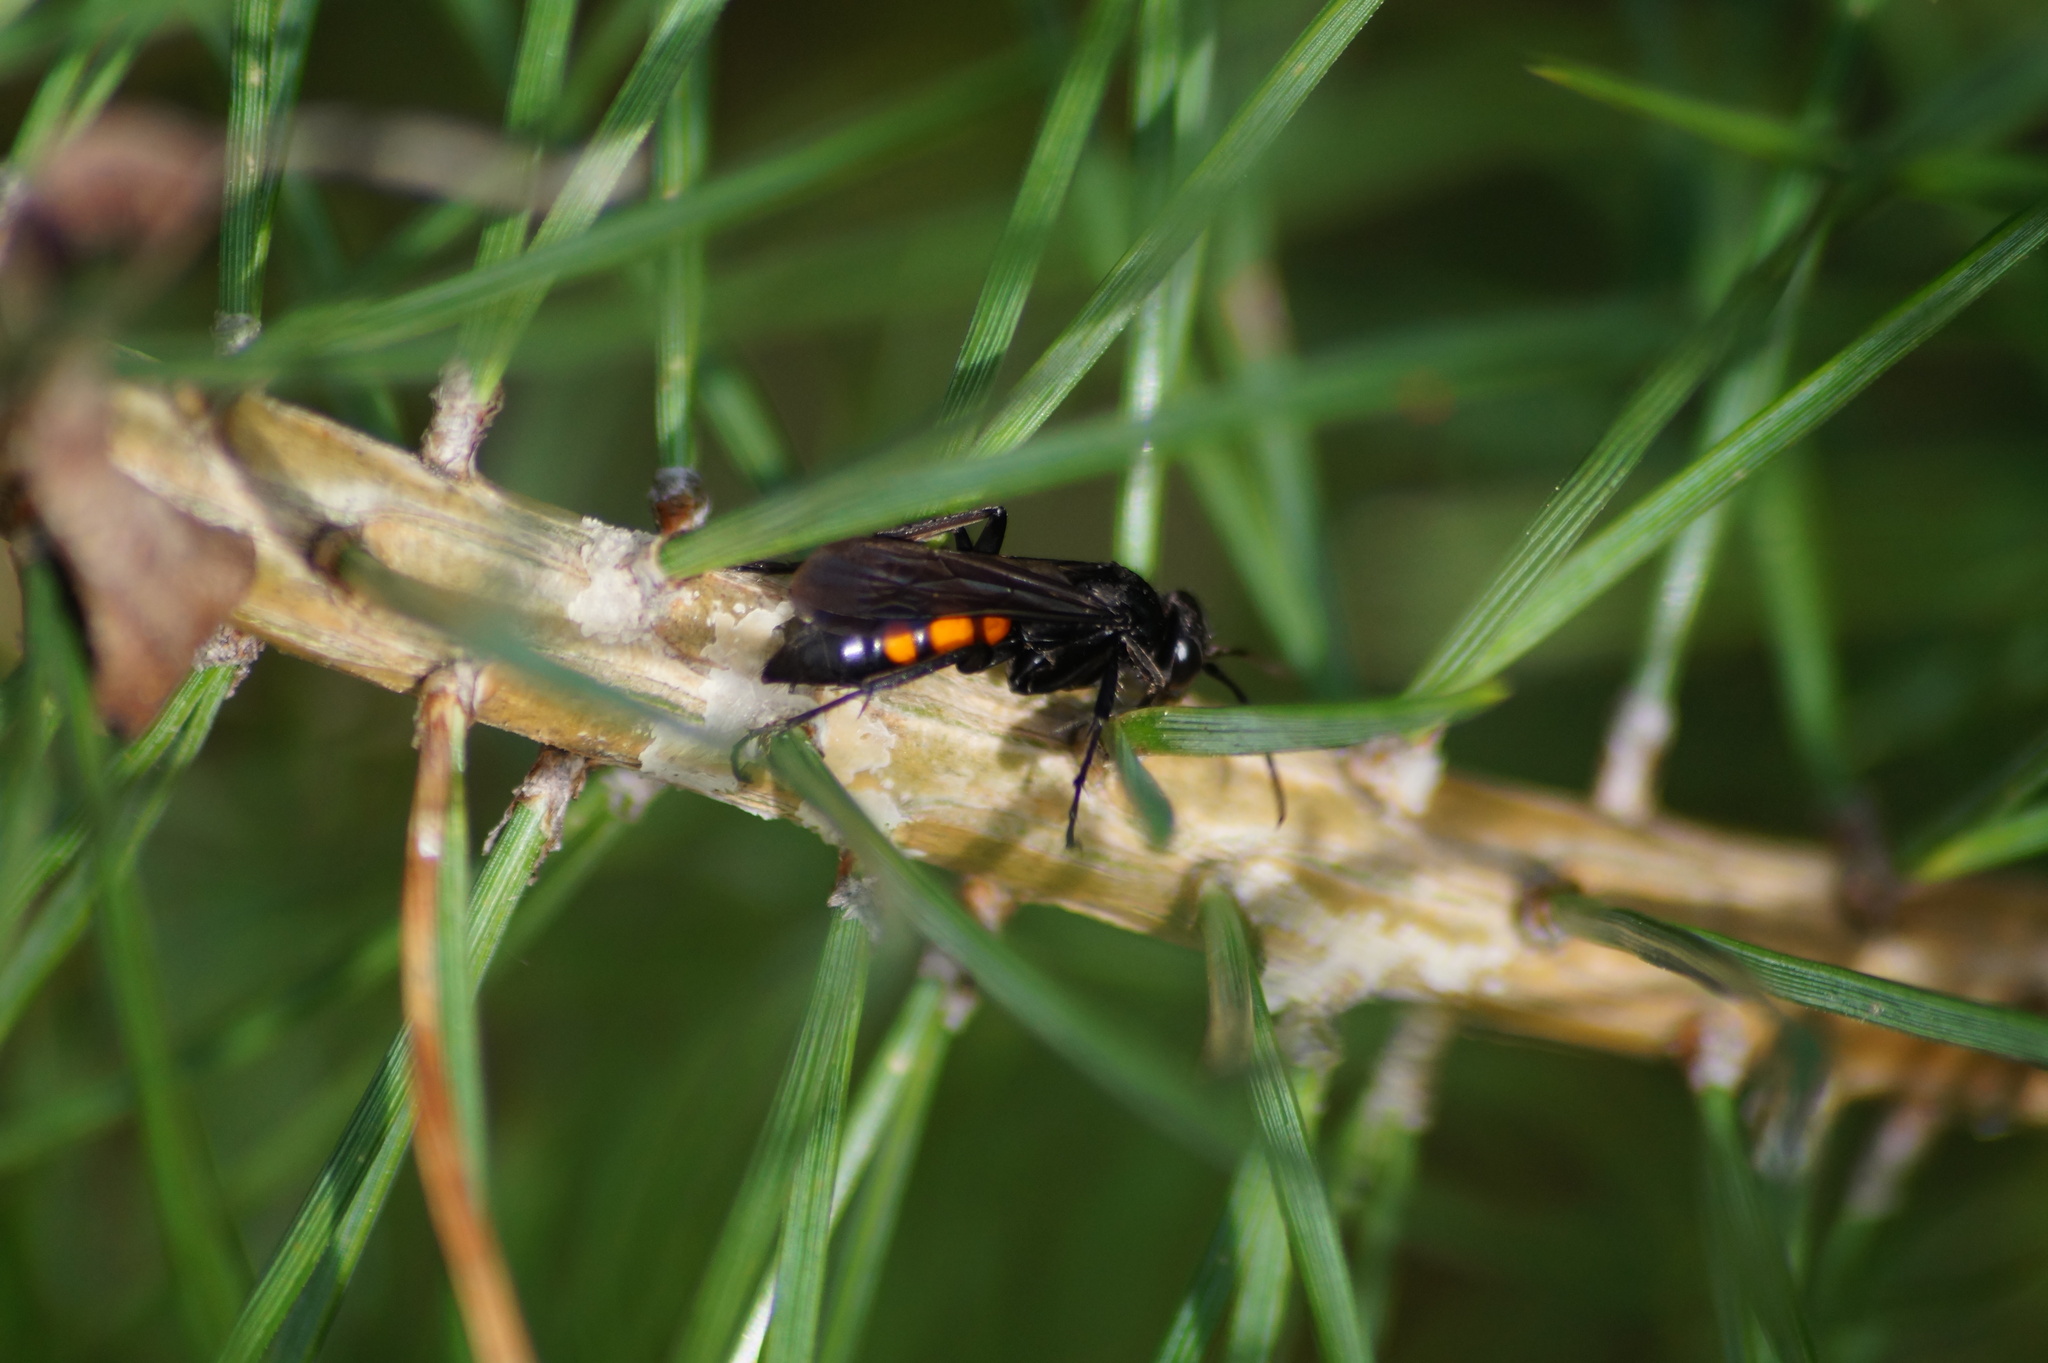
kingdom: Animalia
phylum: Arthropoda
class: Insecta
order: Hymenoptera
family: Pompilidae
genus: Anoplius
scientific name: Anoplius viaticus
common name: Black banded spider wasp
